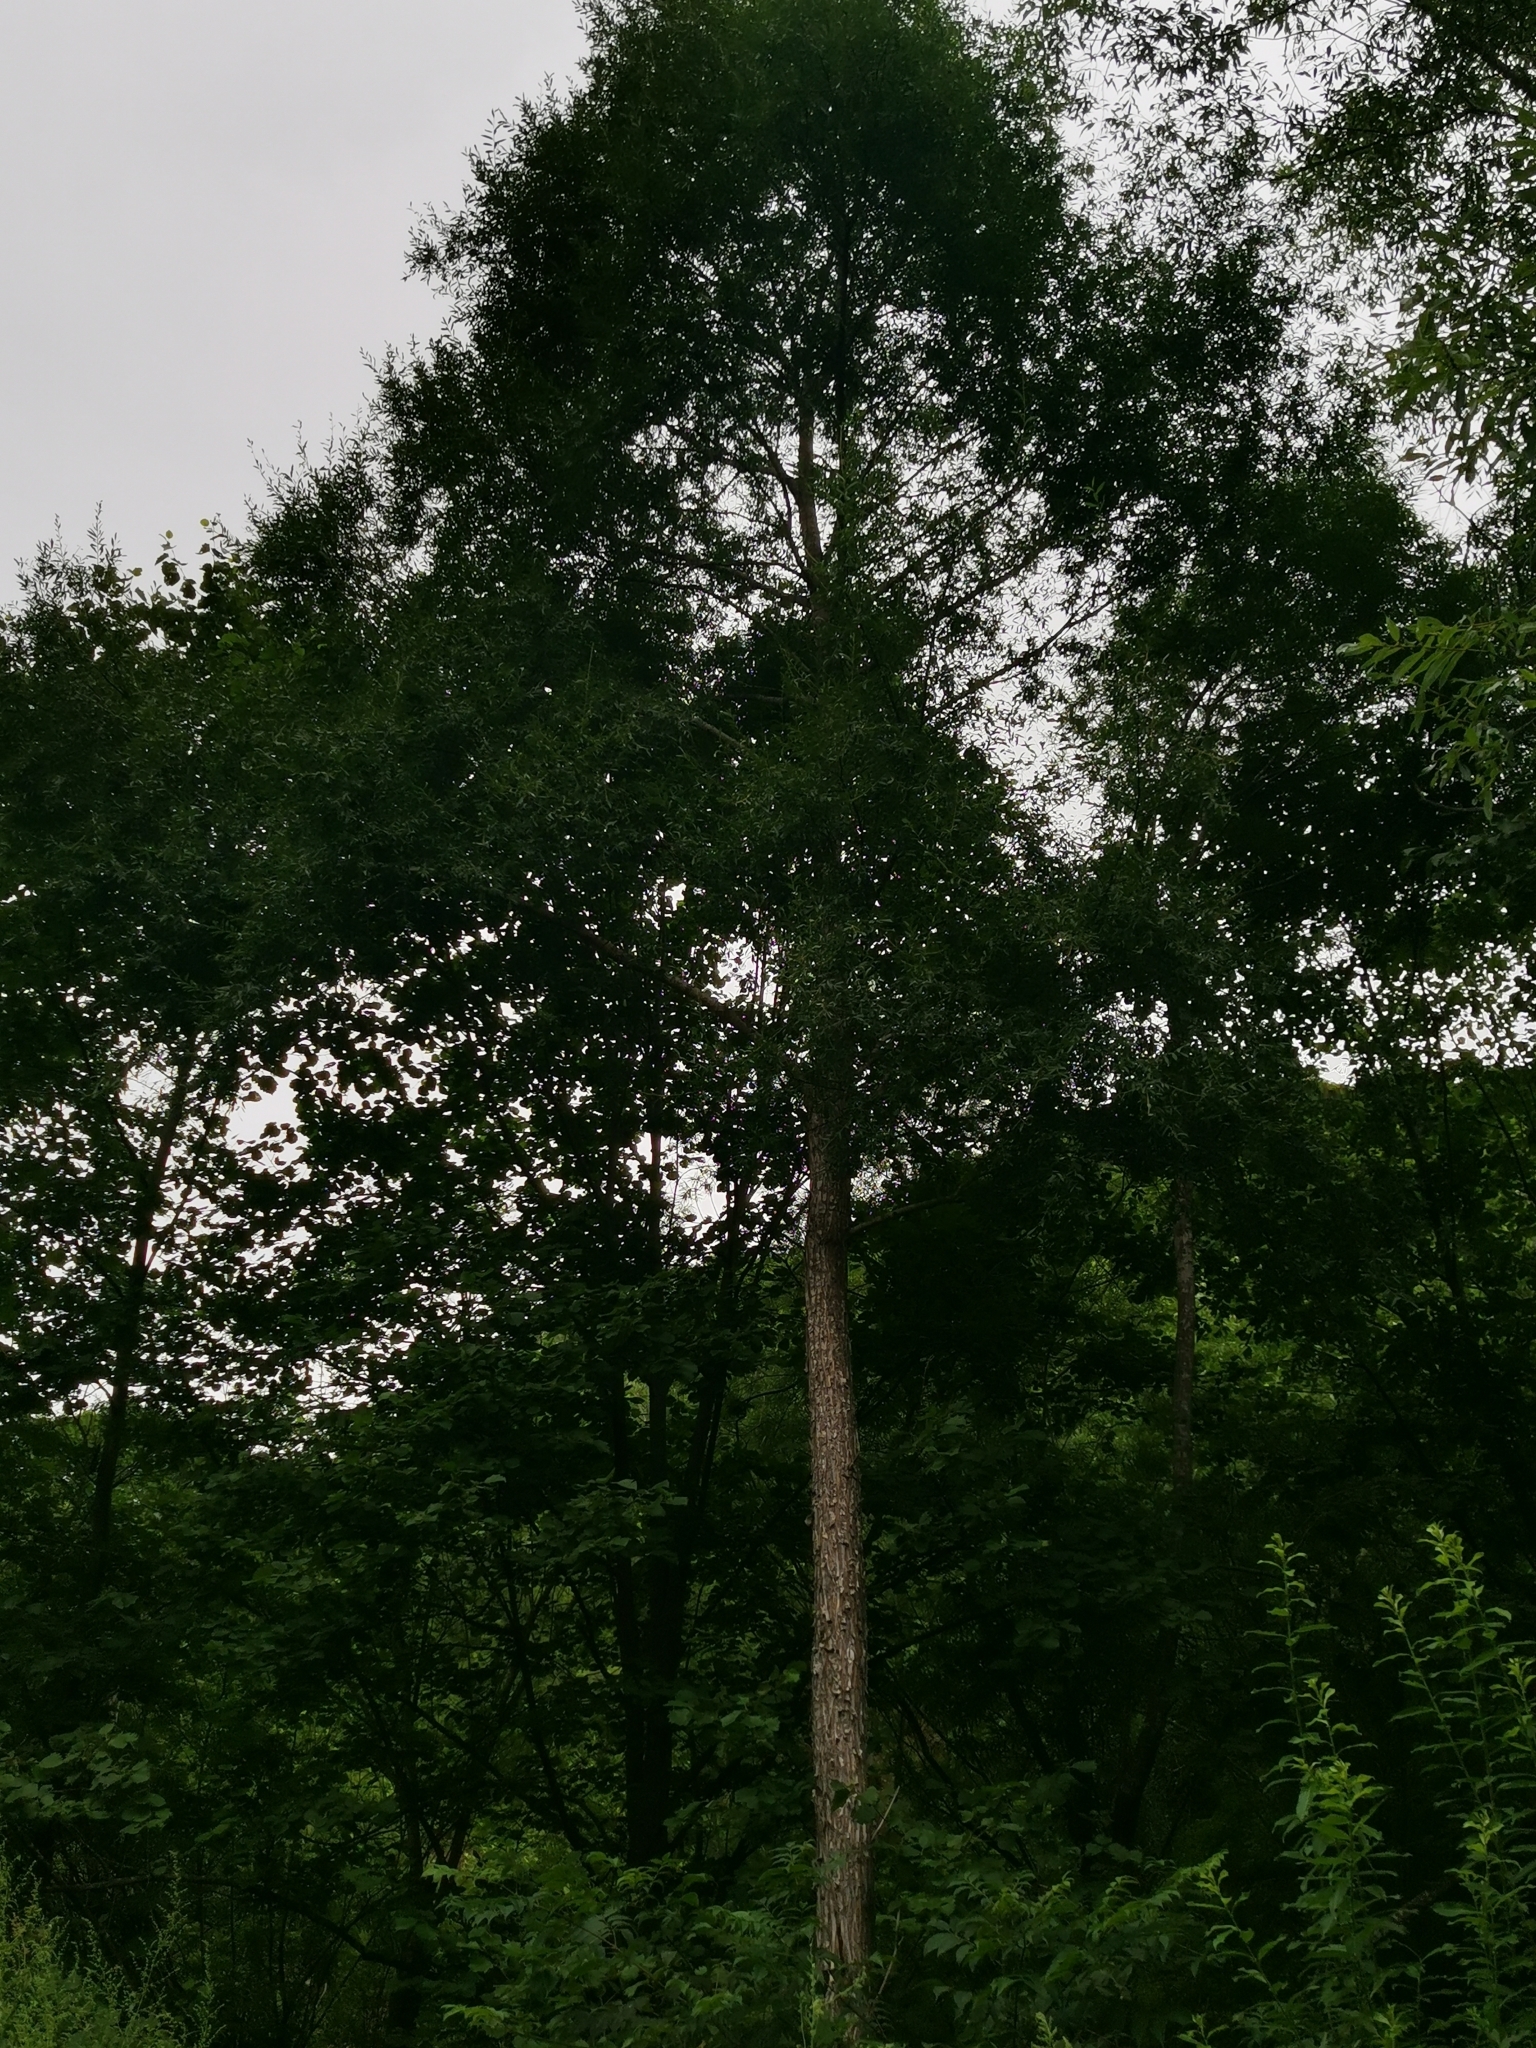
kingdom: Plantae
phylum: Tracheophyta
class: Magnoliopsida
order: Malpighiales
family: Salicaceae
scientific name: Salicaceae
